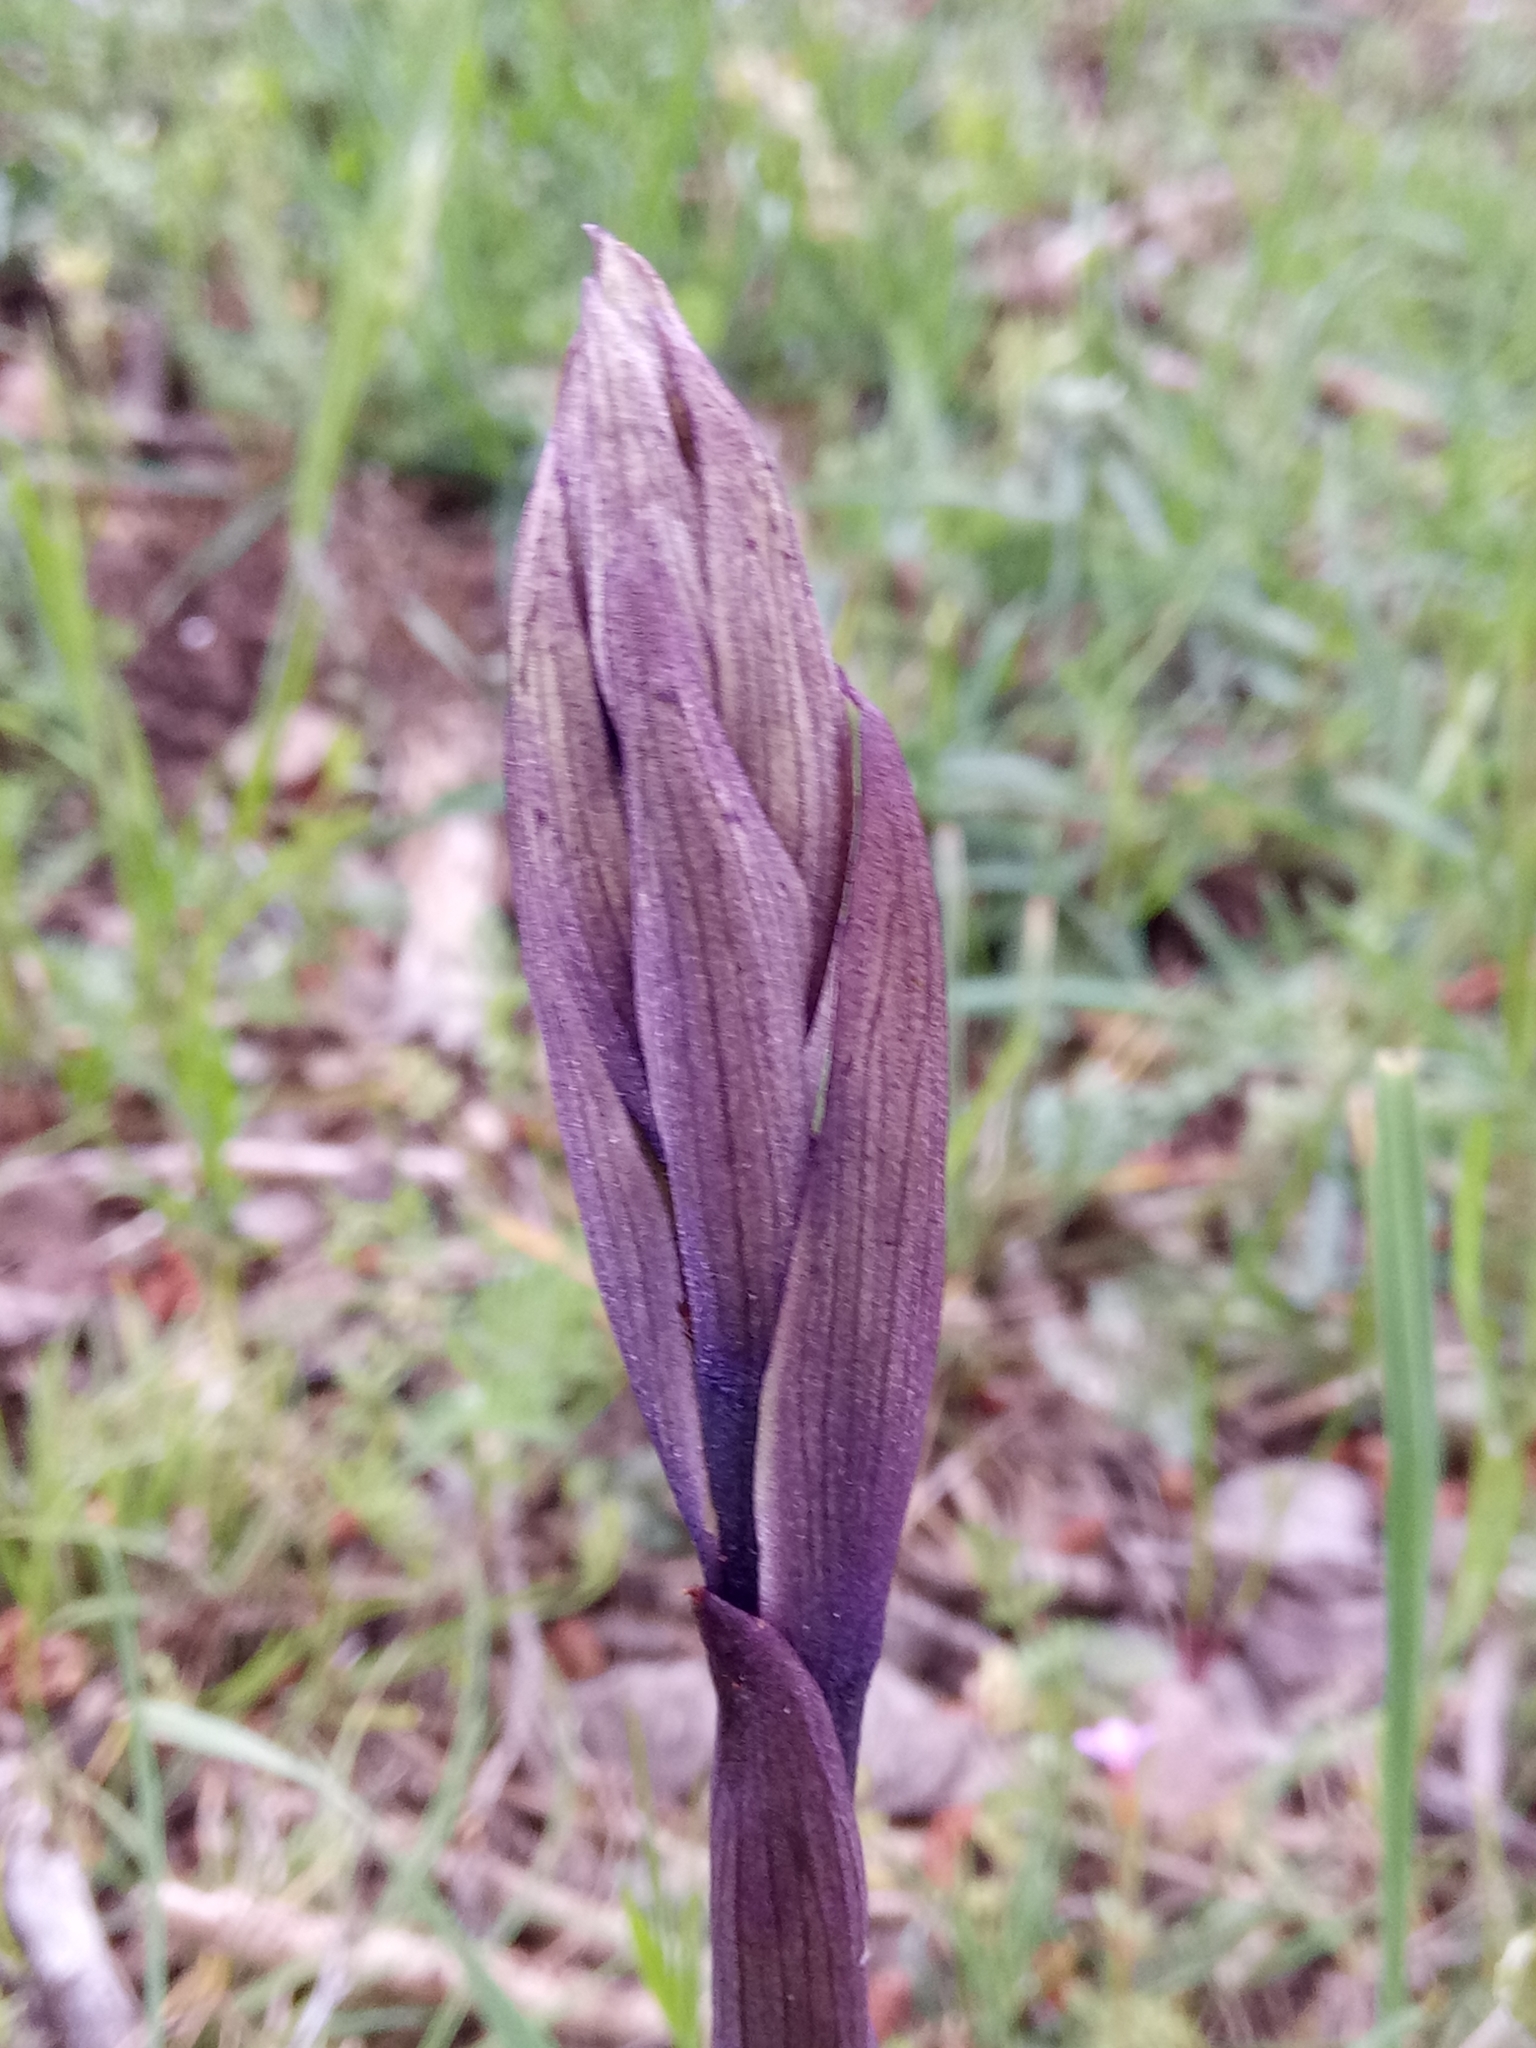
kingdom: Plantae
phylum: Tracheophyta
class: Liliopsida
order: Asparagales
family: Orchidaceae
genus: Limodorum
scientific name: Limodorum abortivum
